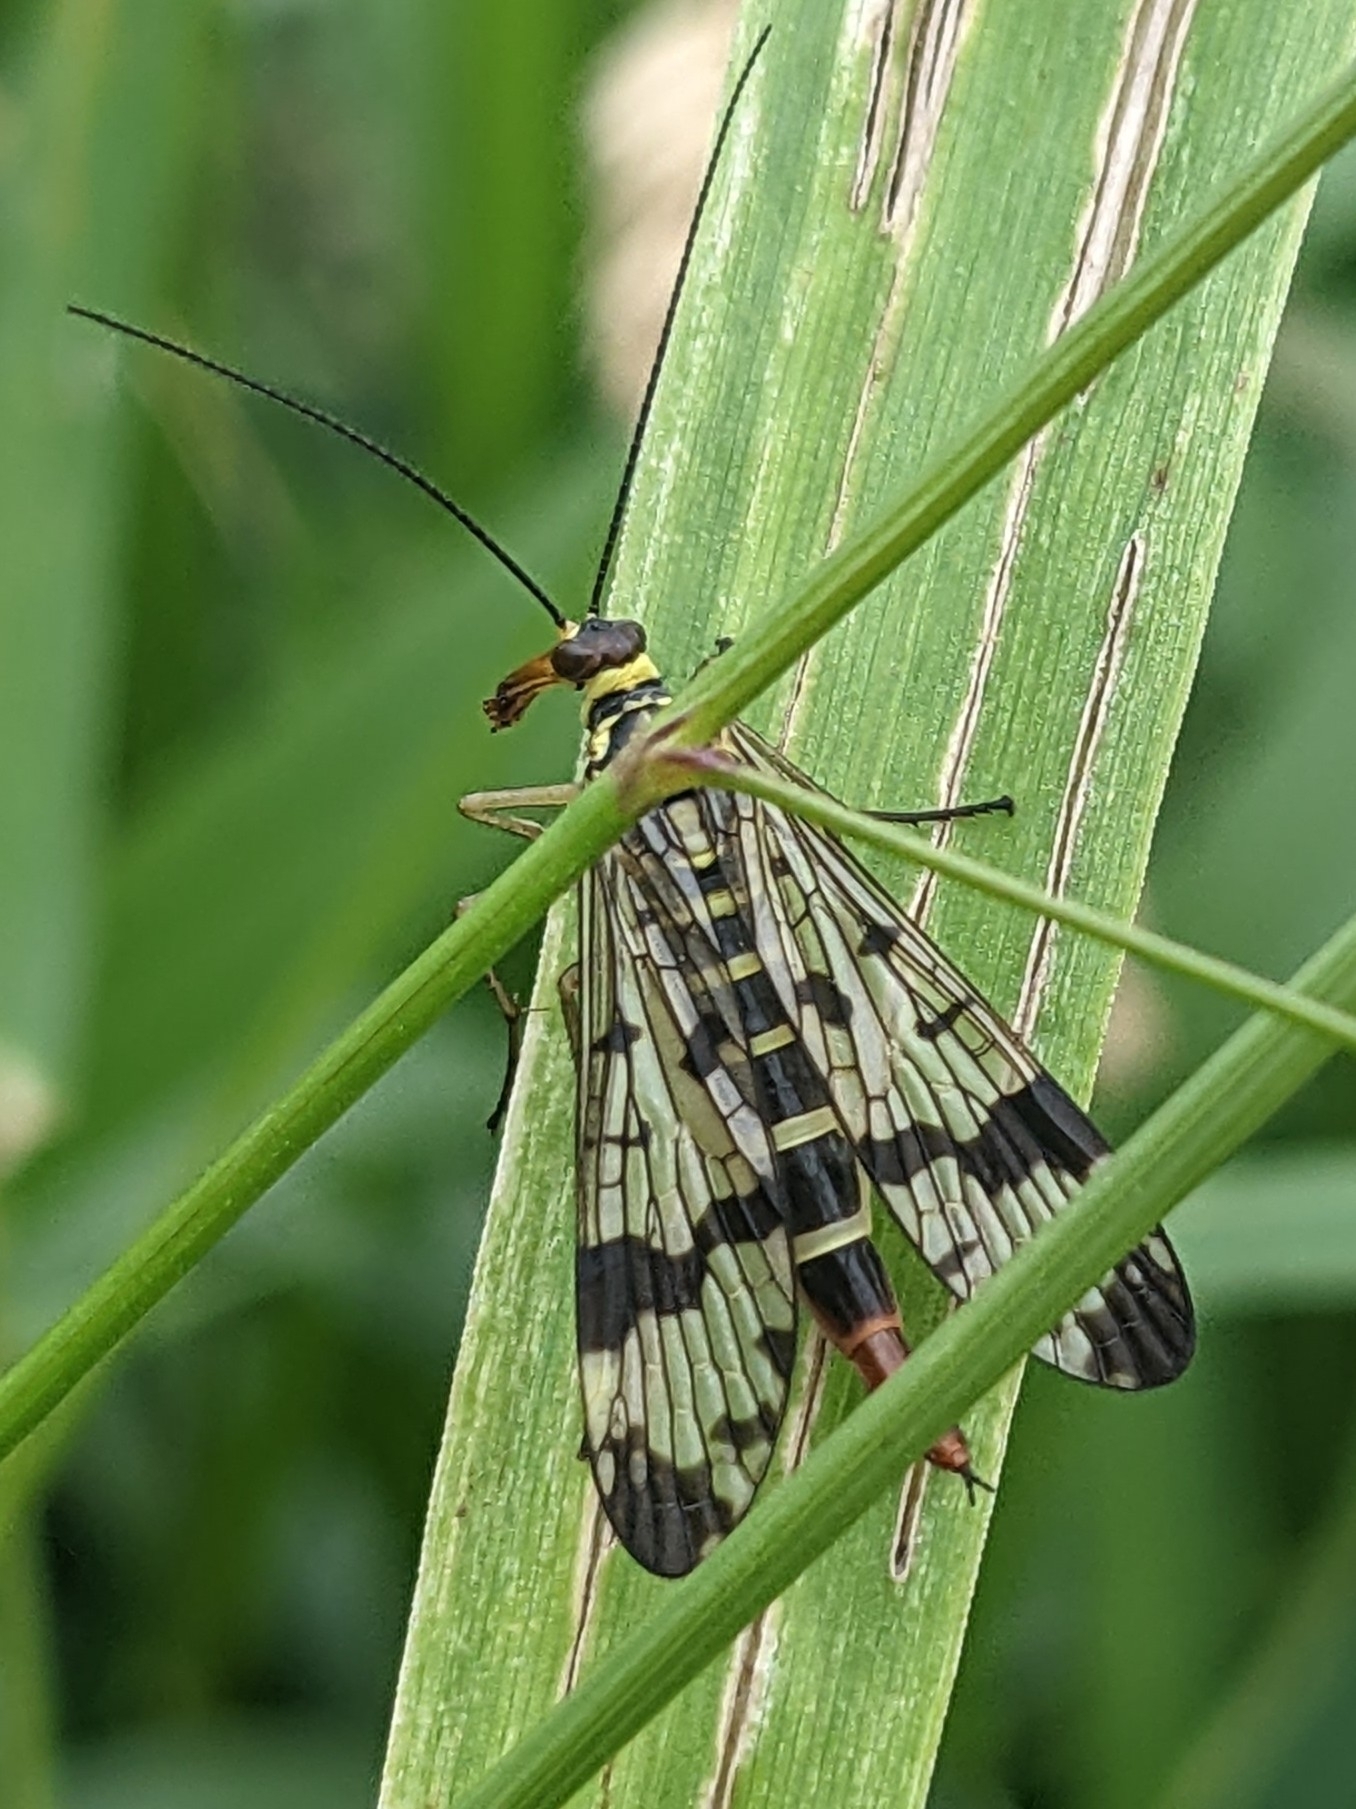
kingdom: Animalia
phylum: Arthropoda
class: Insecta
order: Mecoptera
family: Panorpidae
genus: Panorpa
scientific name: Panorpa communis
